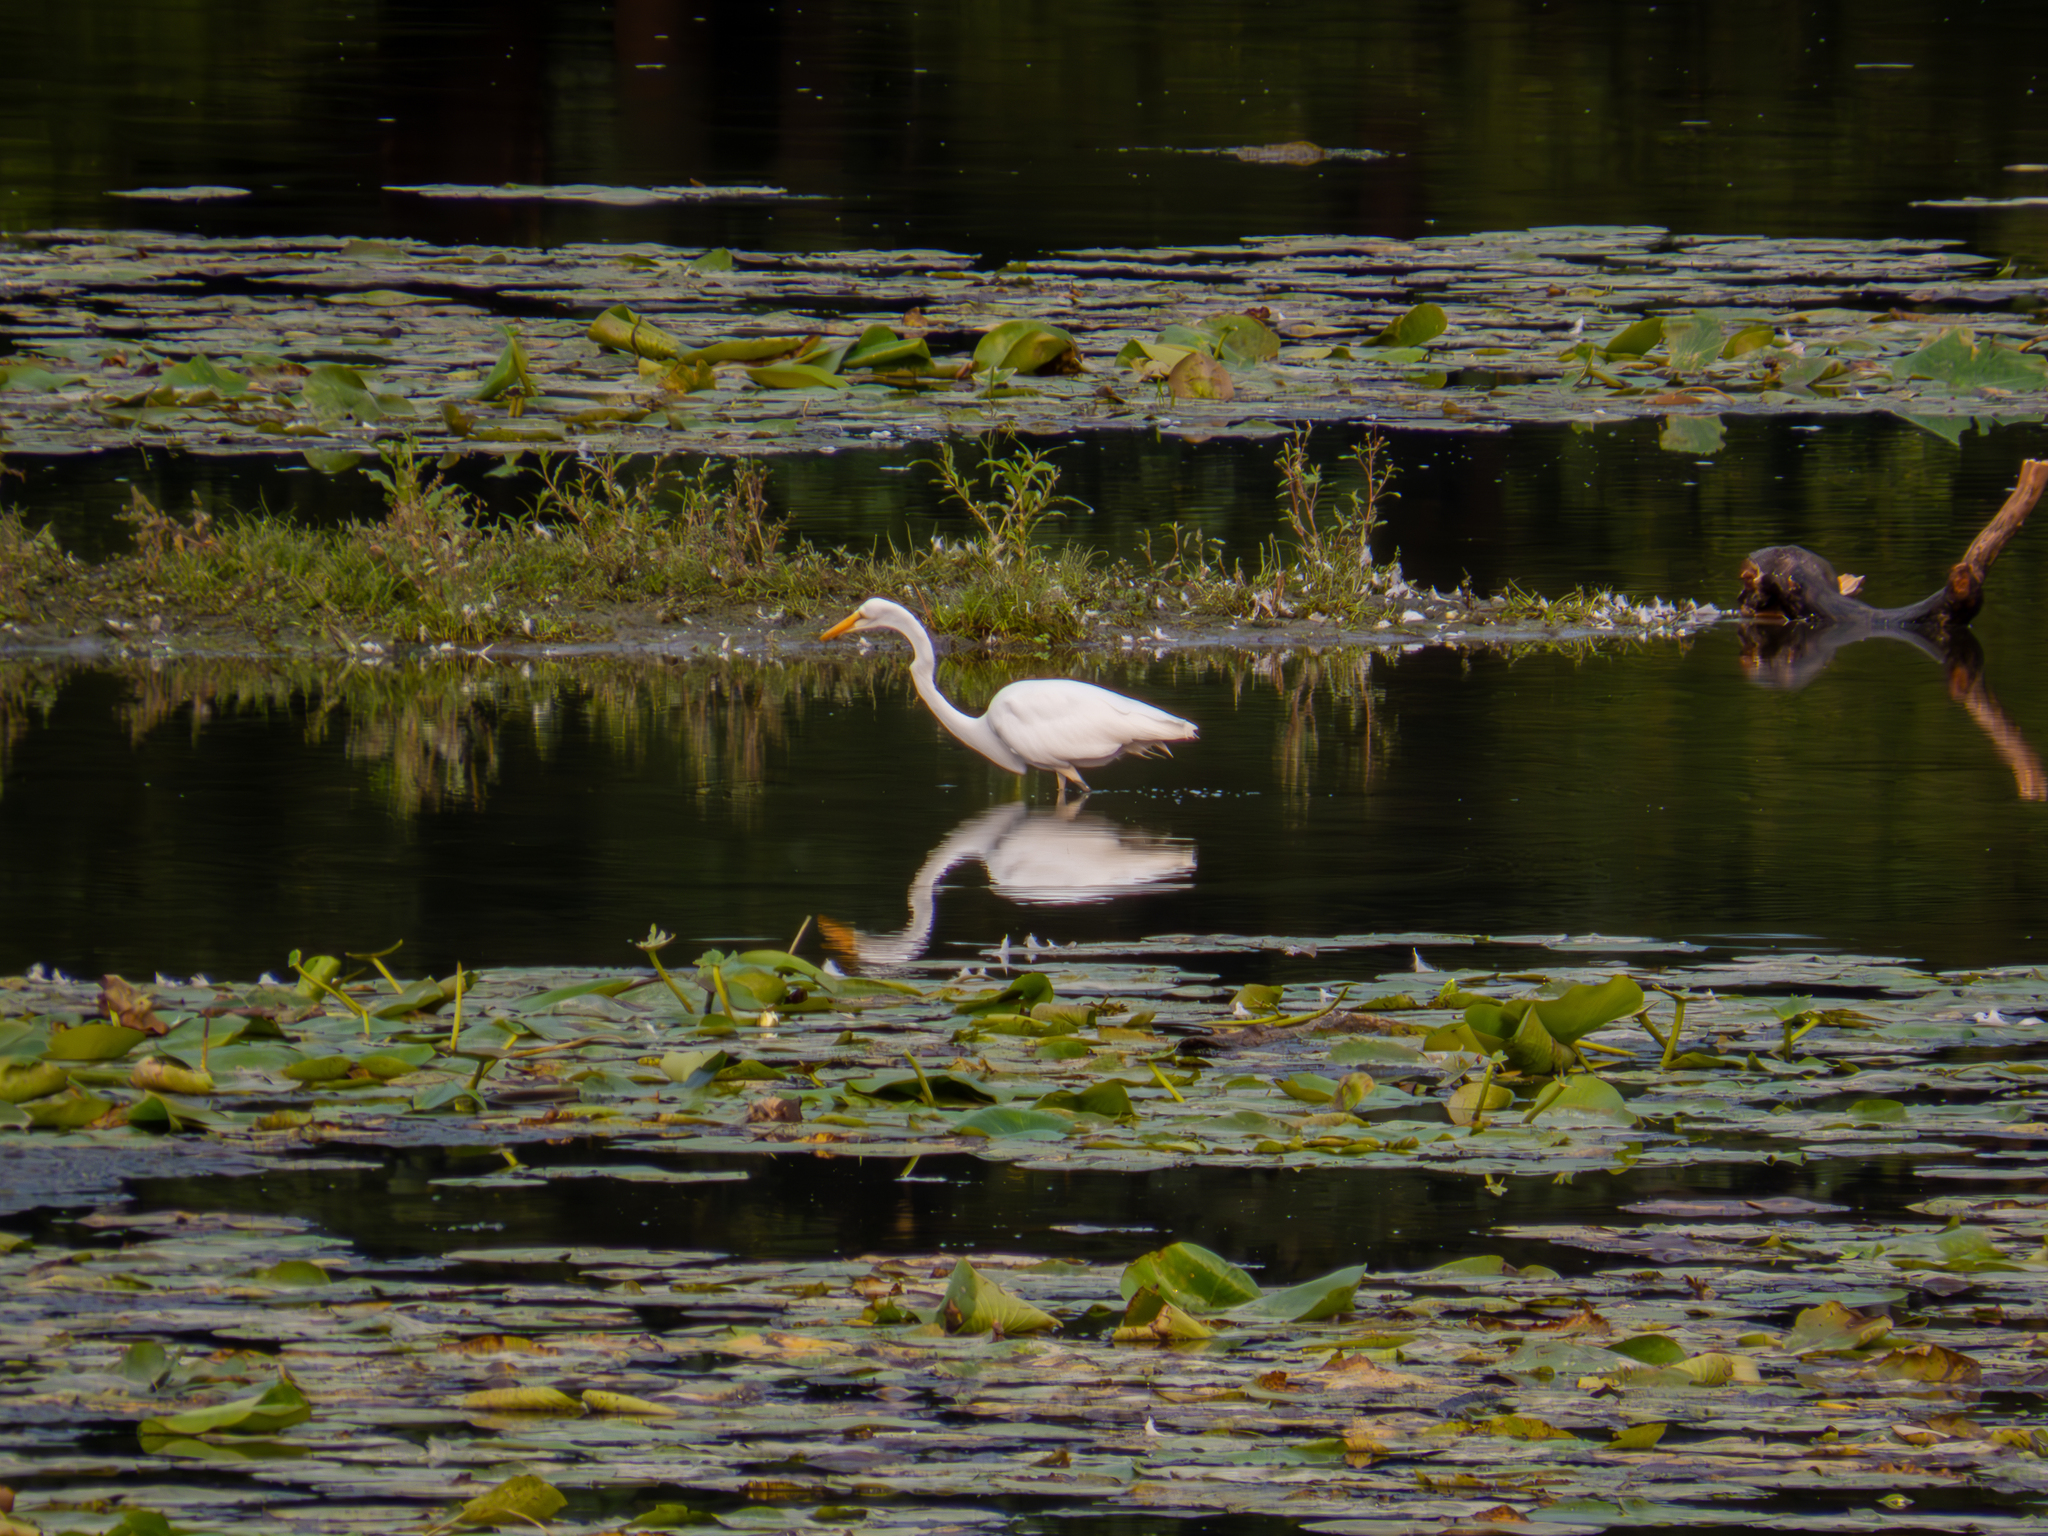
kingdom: Animalia
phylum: Chordata
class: Aves
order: Pelecaniformes
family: Ardeidae
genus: Ardea
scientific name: Ardea alba
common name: Great egret
